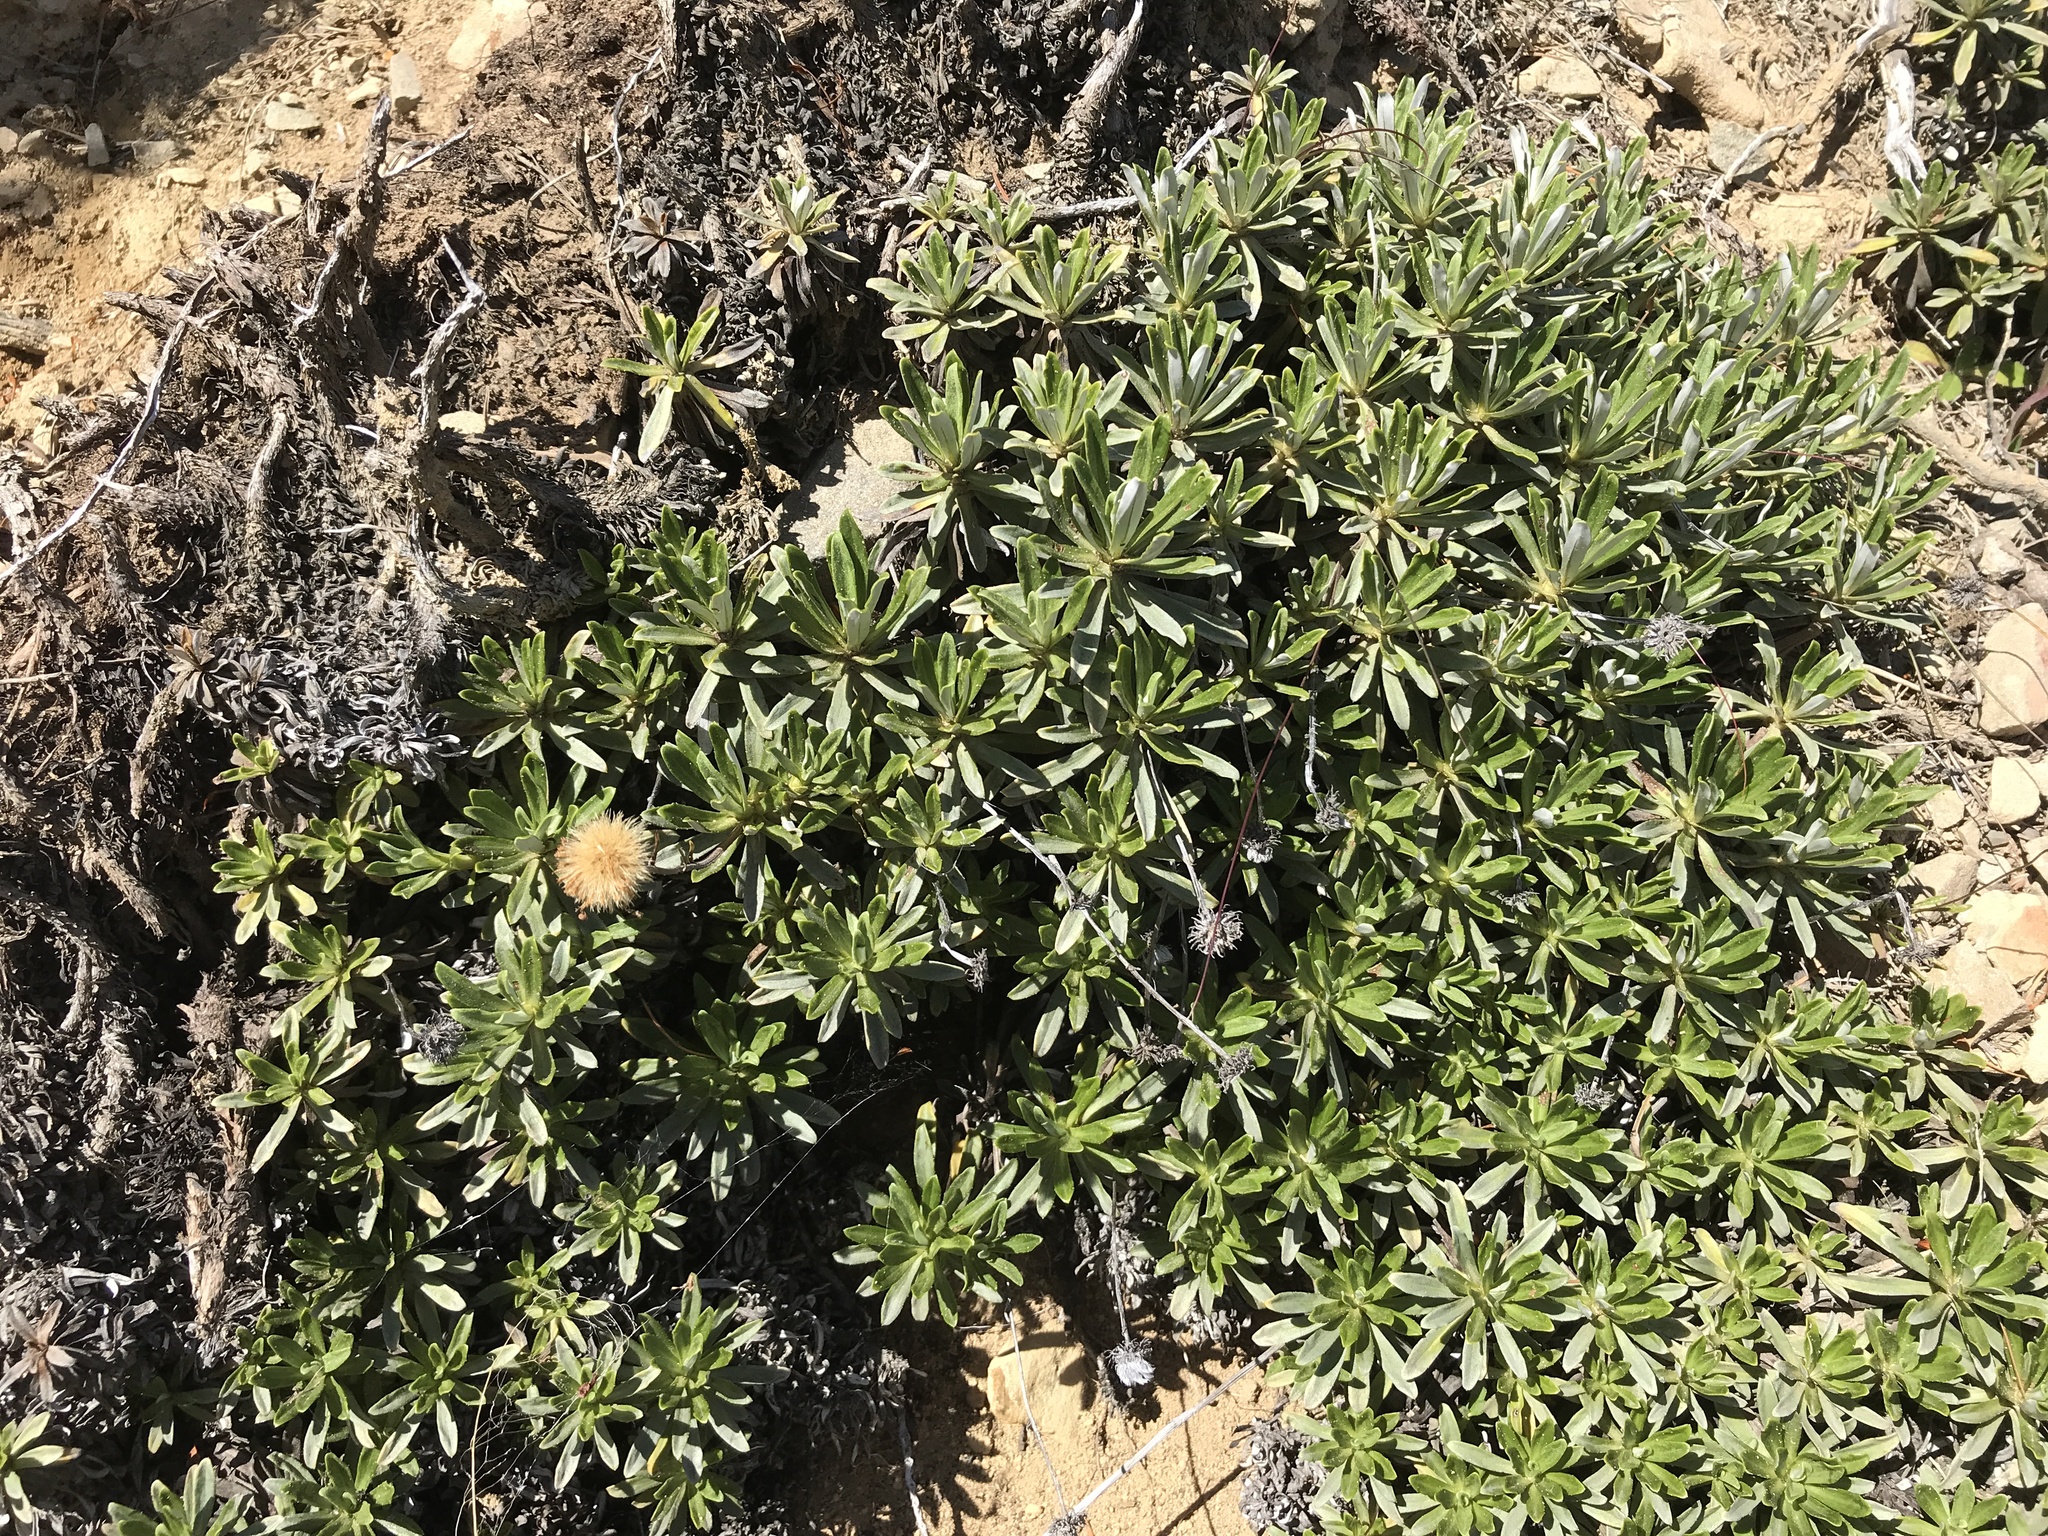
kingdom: Plantae
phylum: Tracheophyta
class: Magnoliopsida
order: Asterales
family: Asteraceae
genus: Celmisia
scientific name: Celmisia angustifolia
